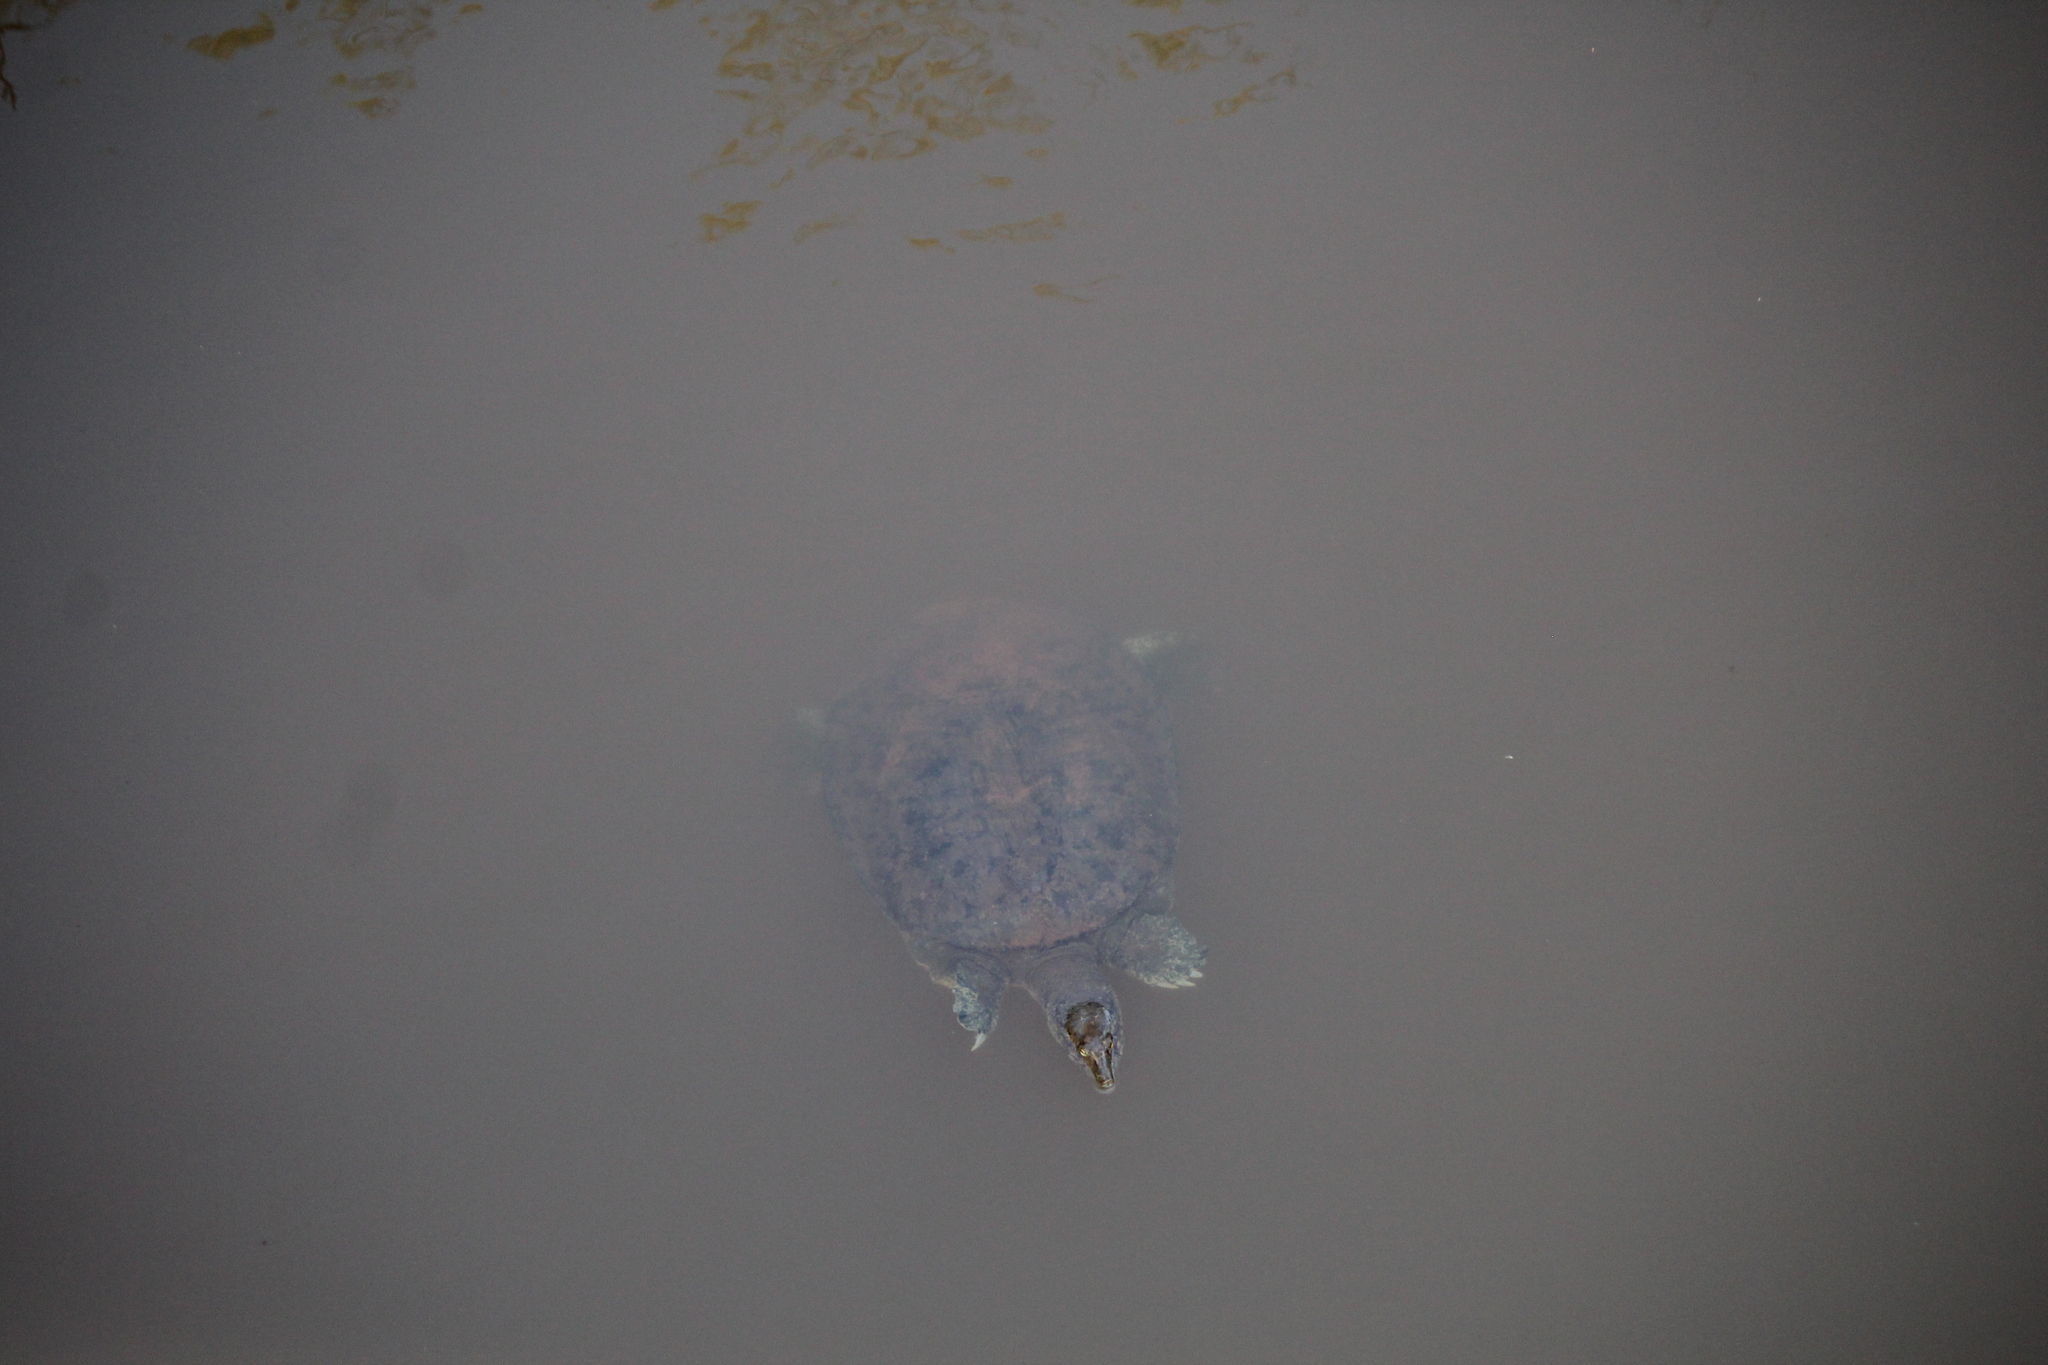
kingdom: Animalia
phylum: Chordata
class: Testudines
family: Trionychidae
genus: Apalone
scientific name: Apalone spinifera
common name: Spiny softshell turtle
